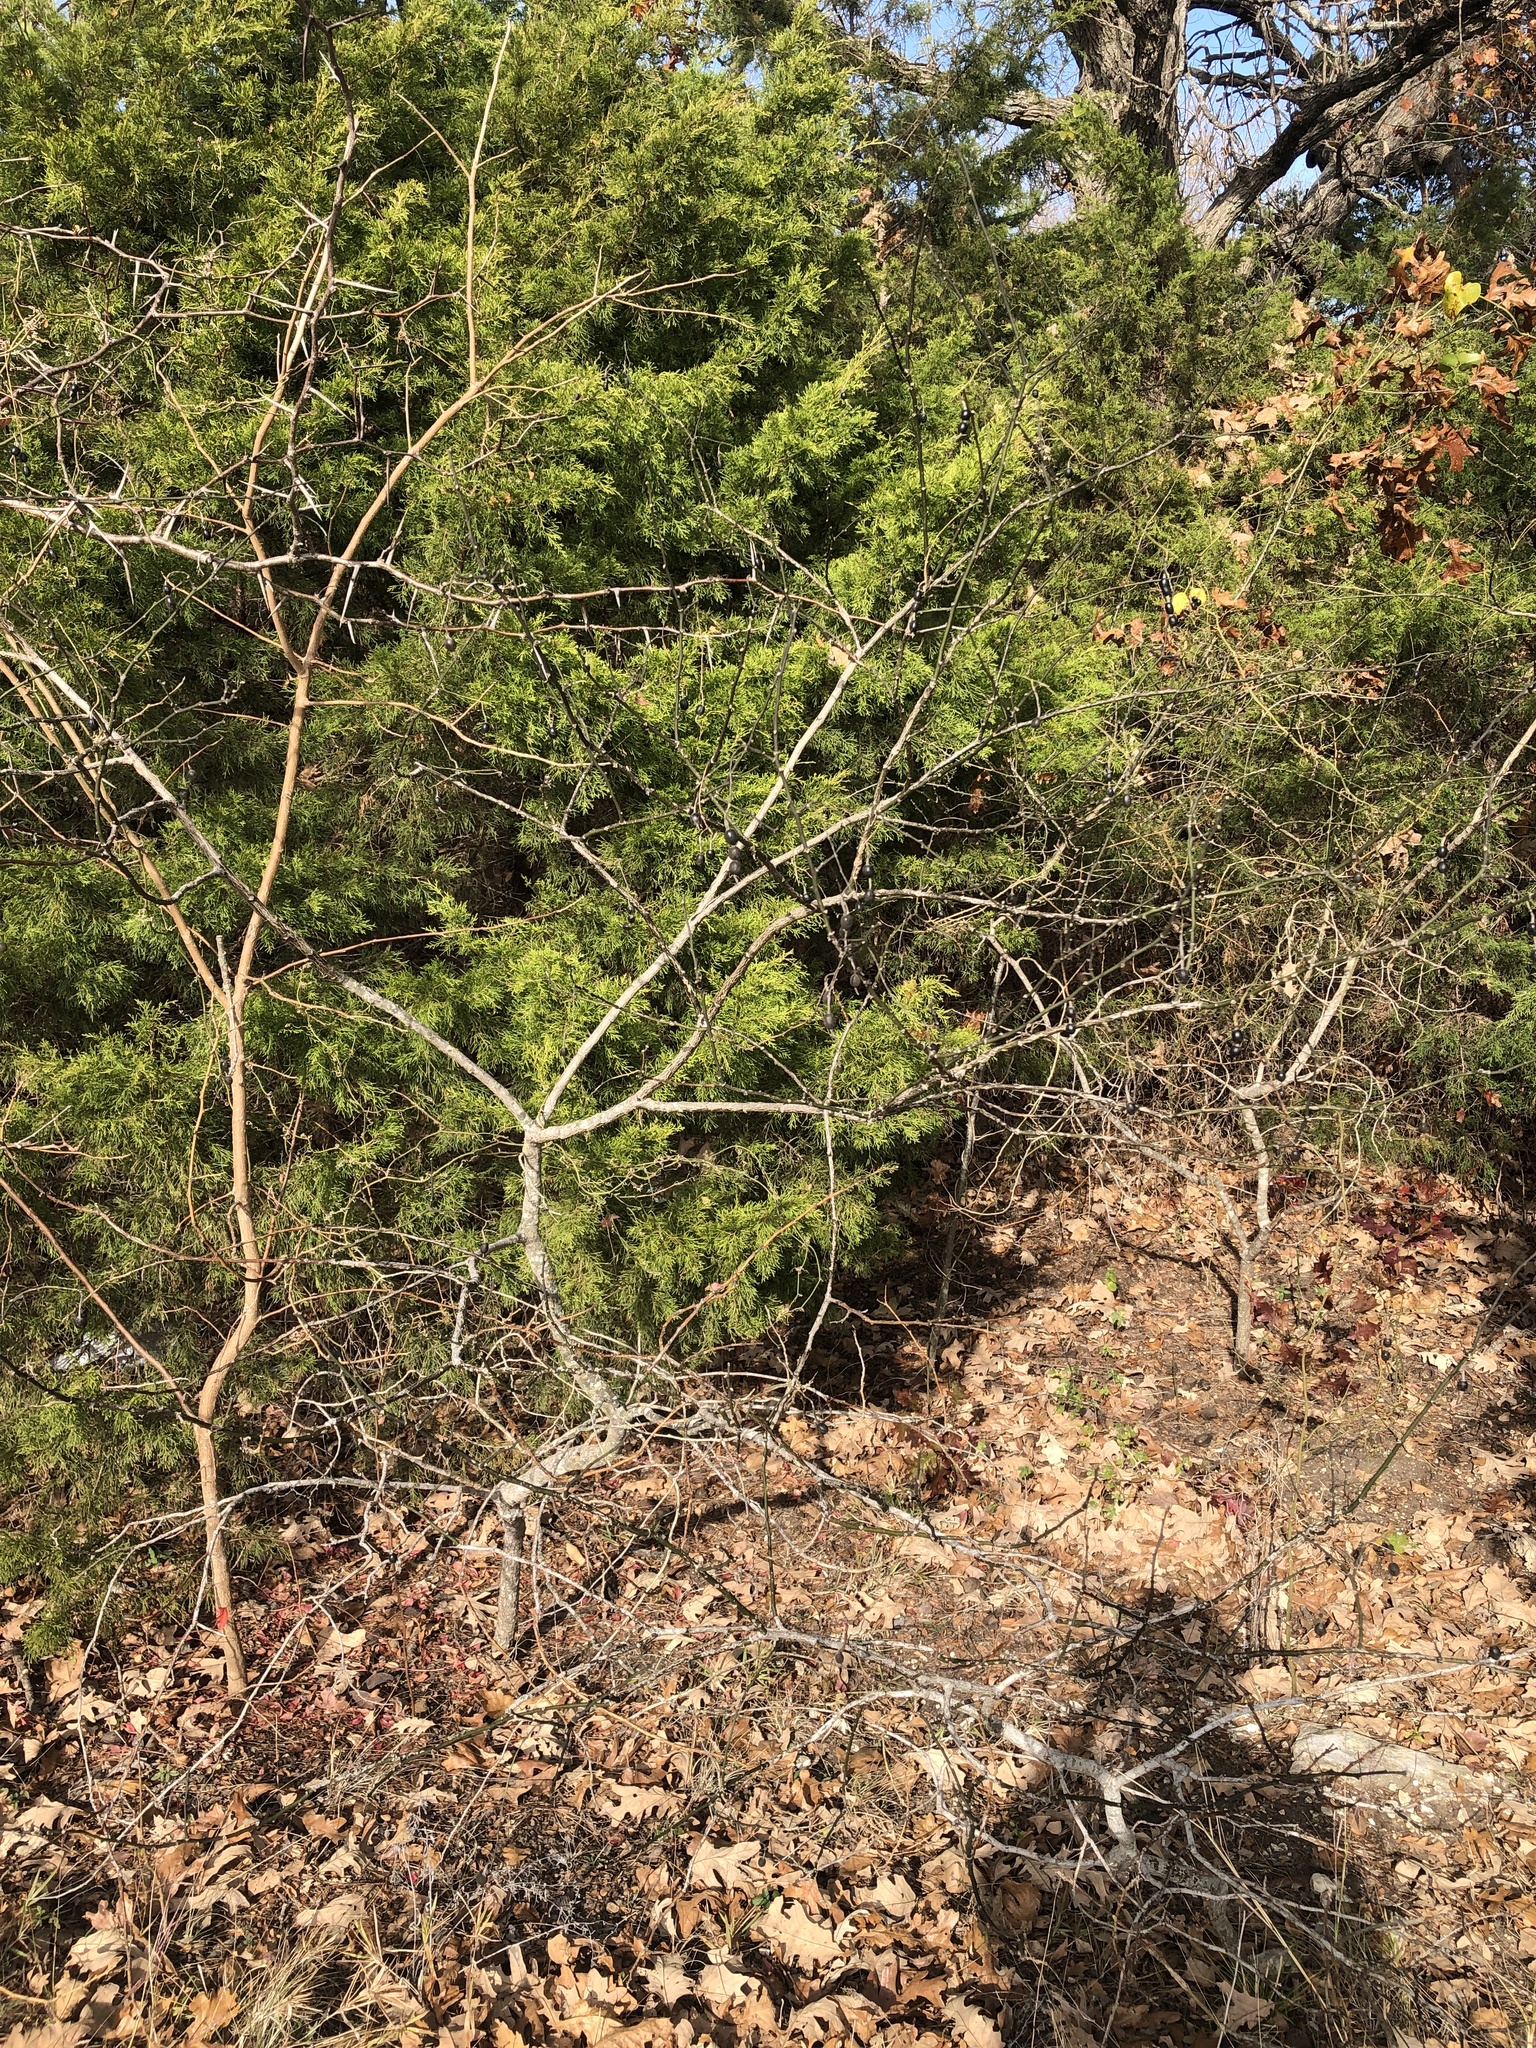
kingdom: Plantae
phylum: Tracheophyta
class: Magnoliopsida
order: Fabales
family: Fabaceae
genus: Styphnolobium
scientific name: Styphnolobium affine
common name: Texas sophora
